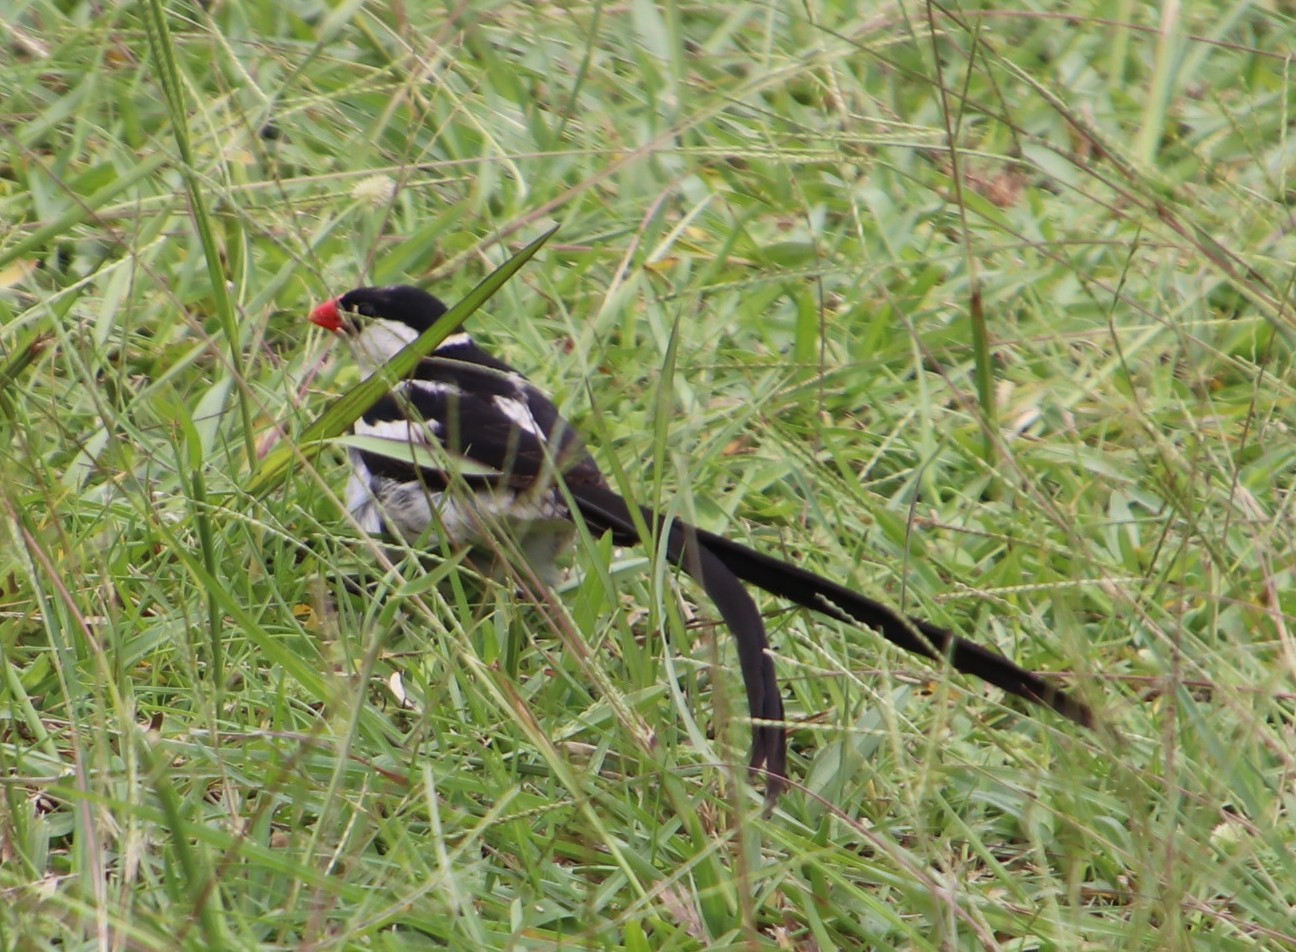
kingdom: Animalia
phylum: Chordata
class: Aves
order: Passeriformes
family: Viduidae
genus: Vidua
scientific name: Vidua macroura
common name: Pin-tailed whydah
